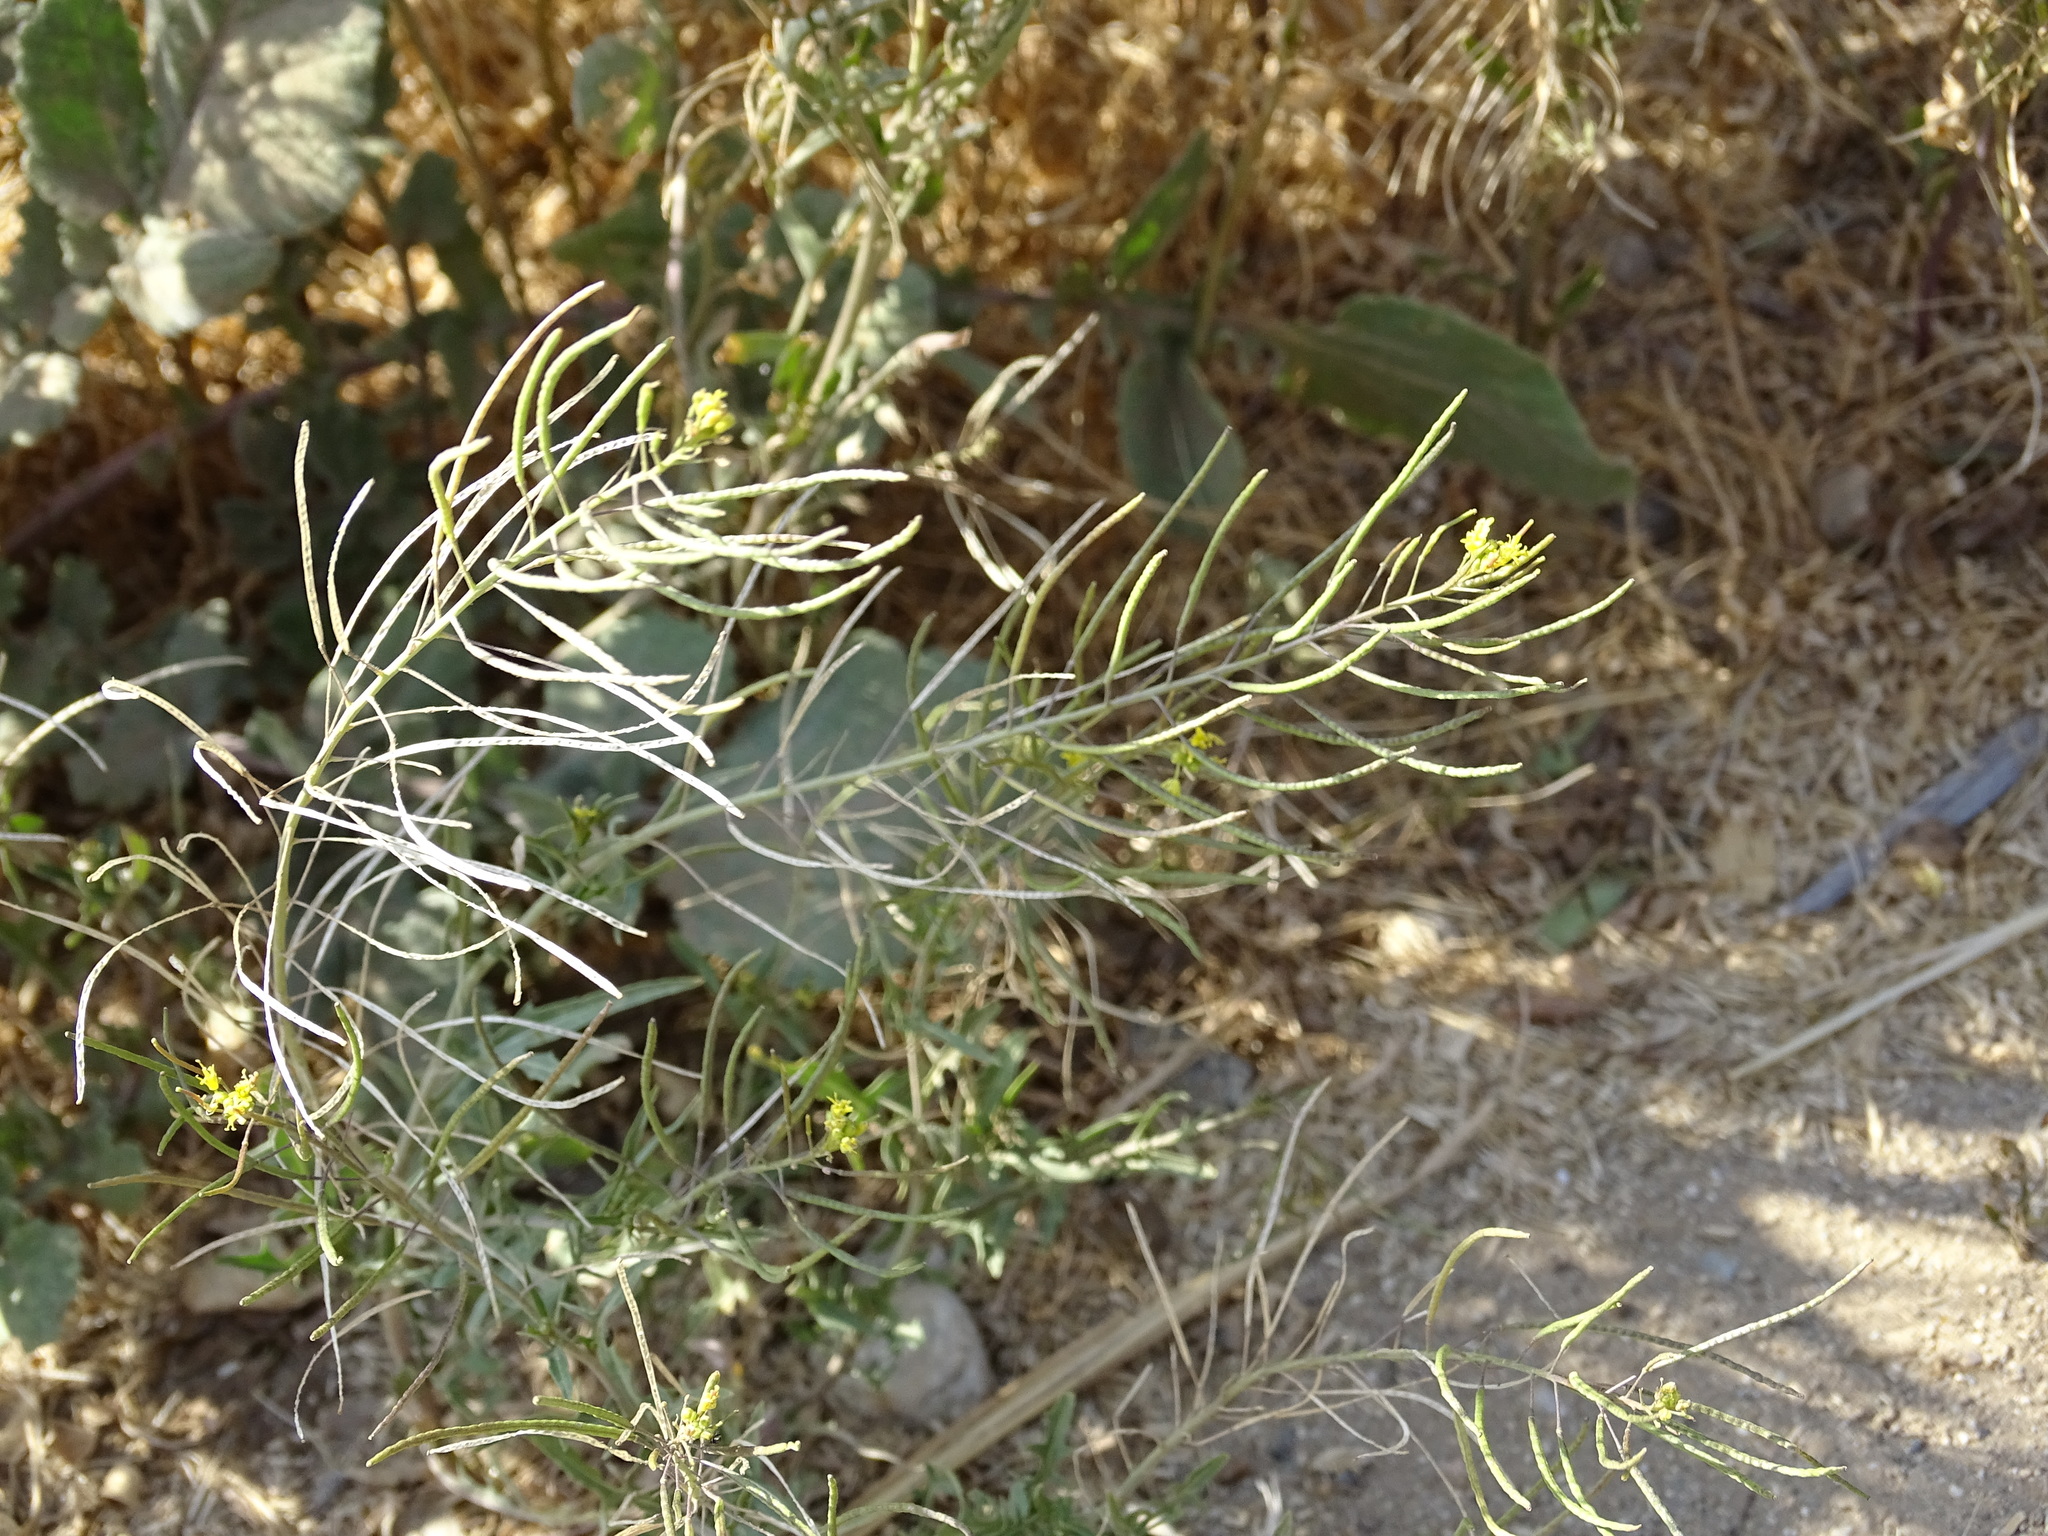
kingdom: Plantae
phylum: Tracheophyta
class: Magnoliopsida
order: Brassicales
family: Brassicaceae
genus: Sisymbrium
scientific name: Sisymbrium irio
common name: London rocket
